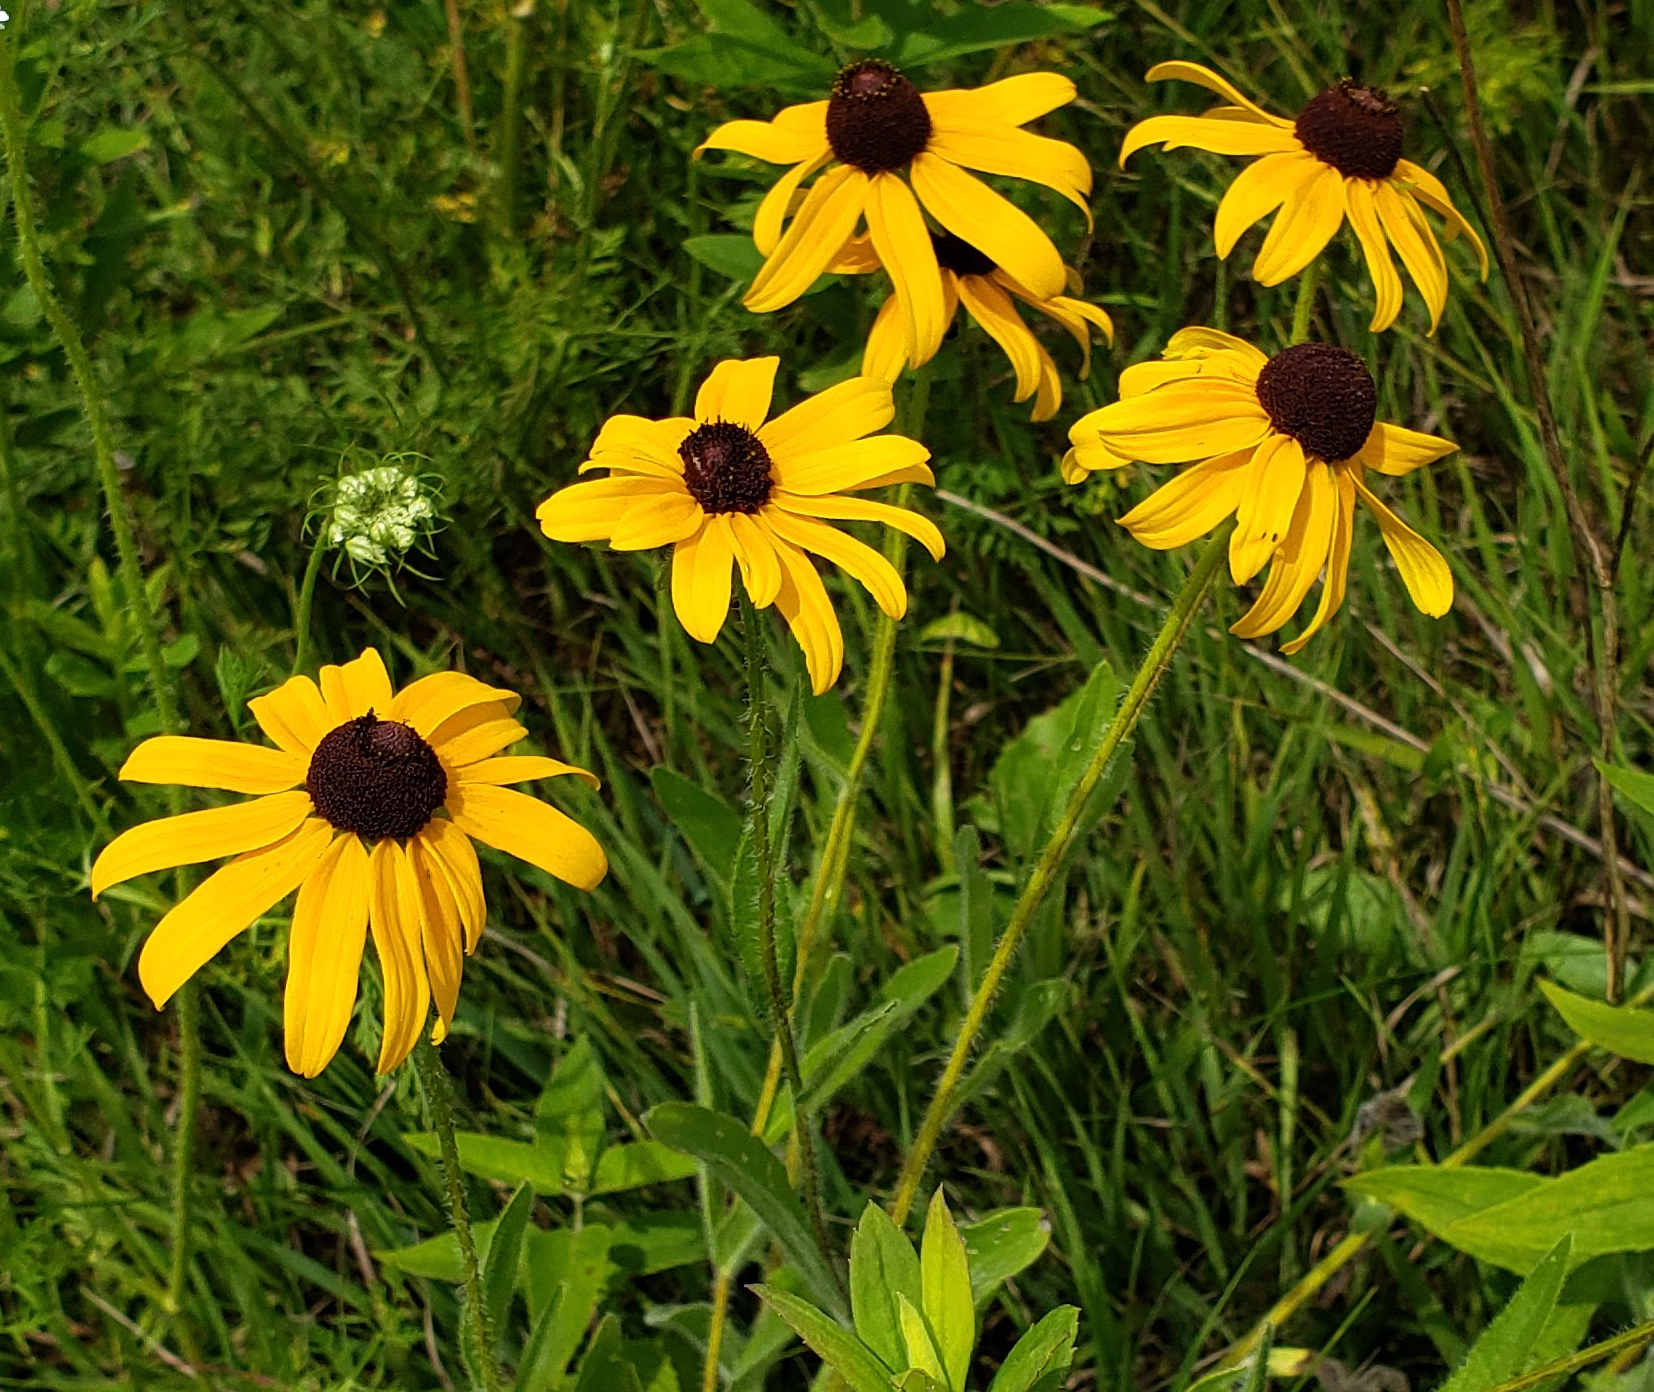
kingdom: Plantae
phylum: Tracheophyta
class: Magnoliopsida
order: Asterales
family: Asteraceae
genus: Rudbeckia
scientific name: Rudbeckia hirta
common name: Black-eyed-susan
